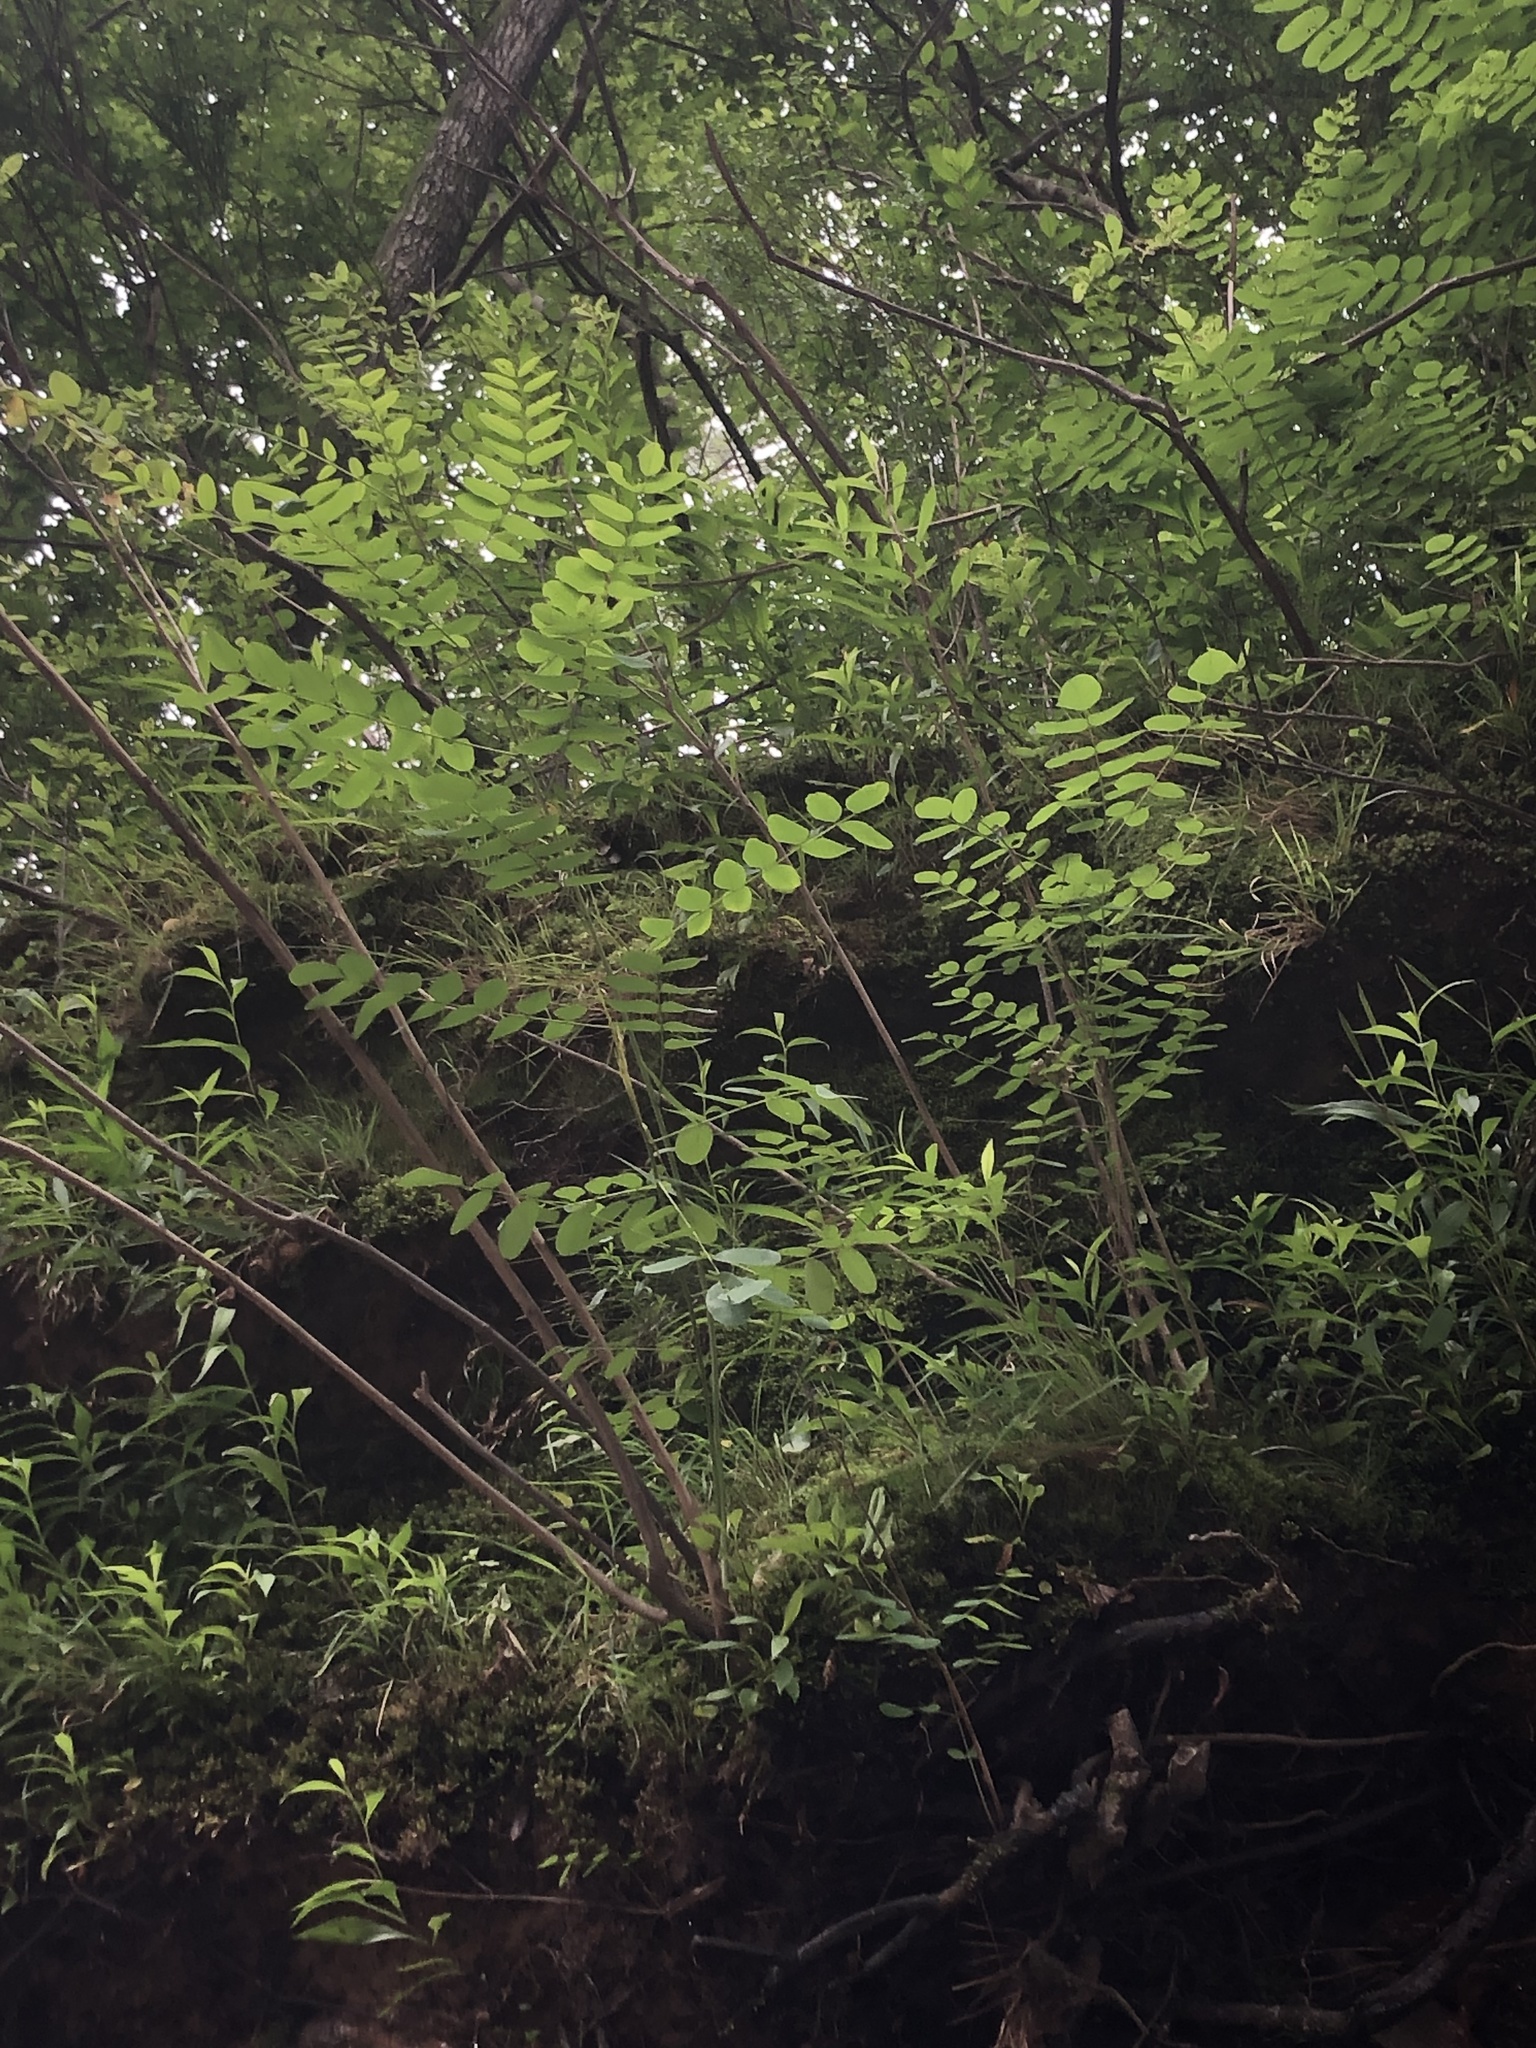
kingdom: Plantae
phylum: Tracheophyta
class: Magnoliopsida
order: Fabales
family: Fabaceae
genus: Amorpha
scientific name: Amorpha fruticosa
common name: False indigo
